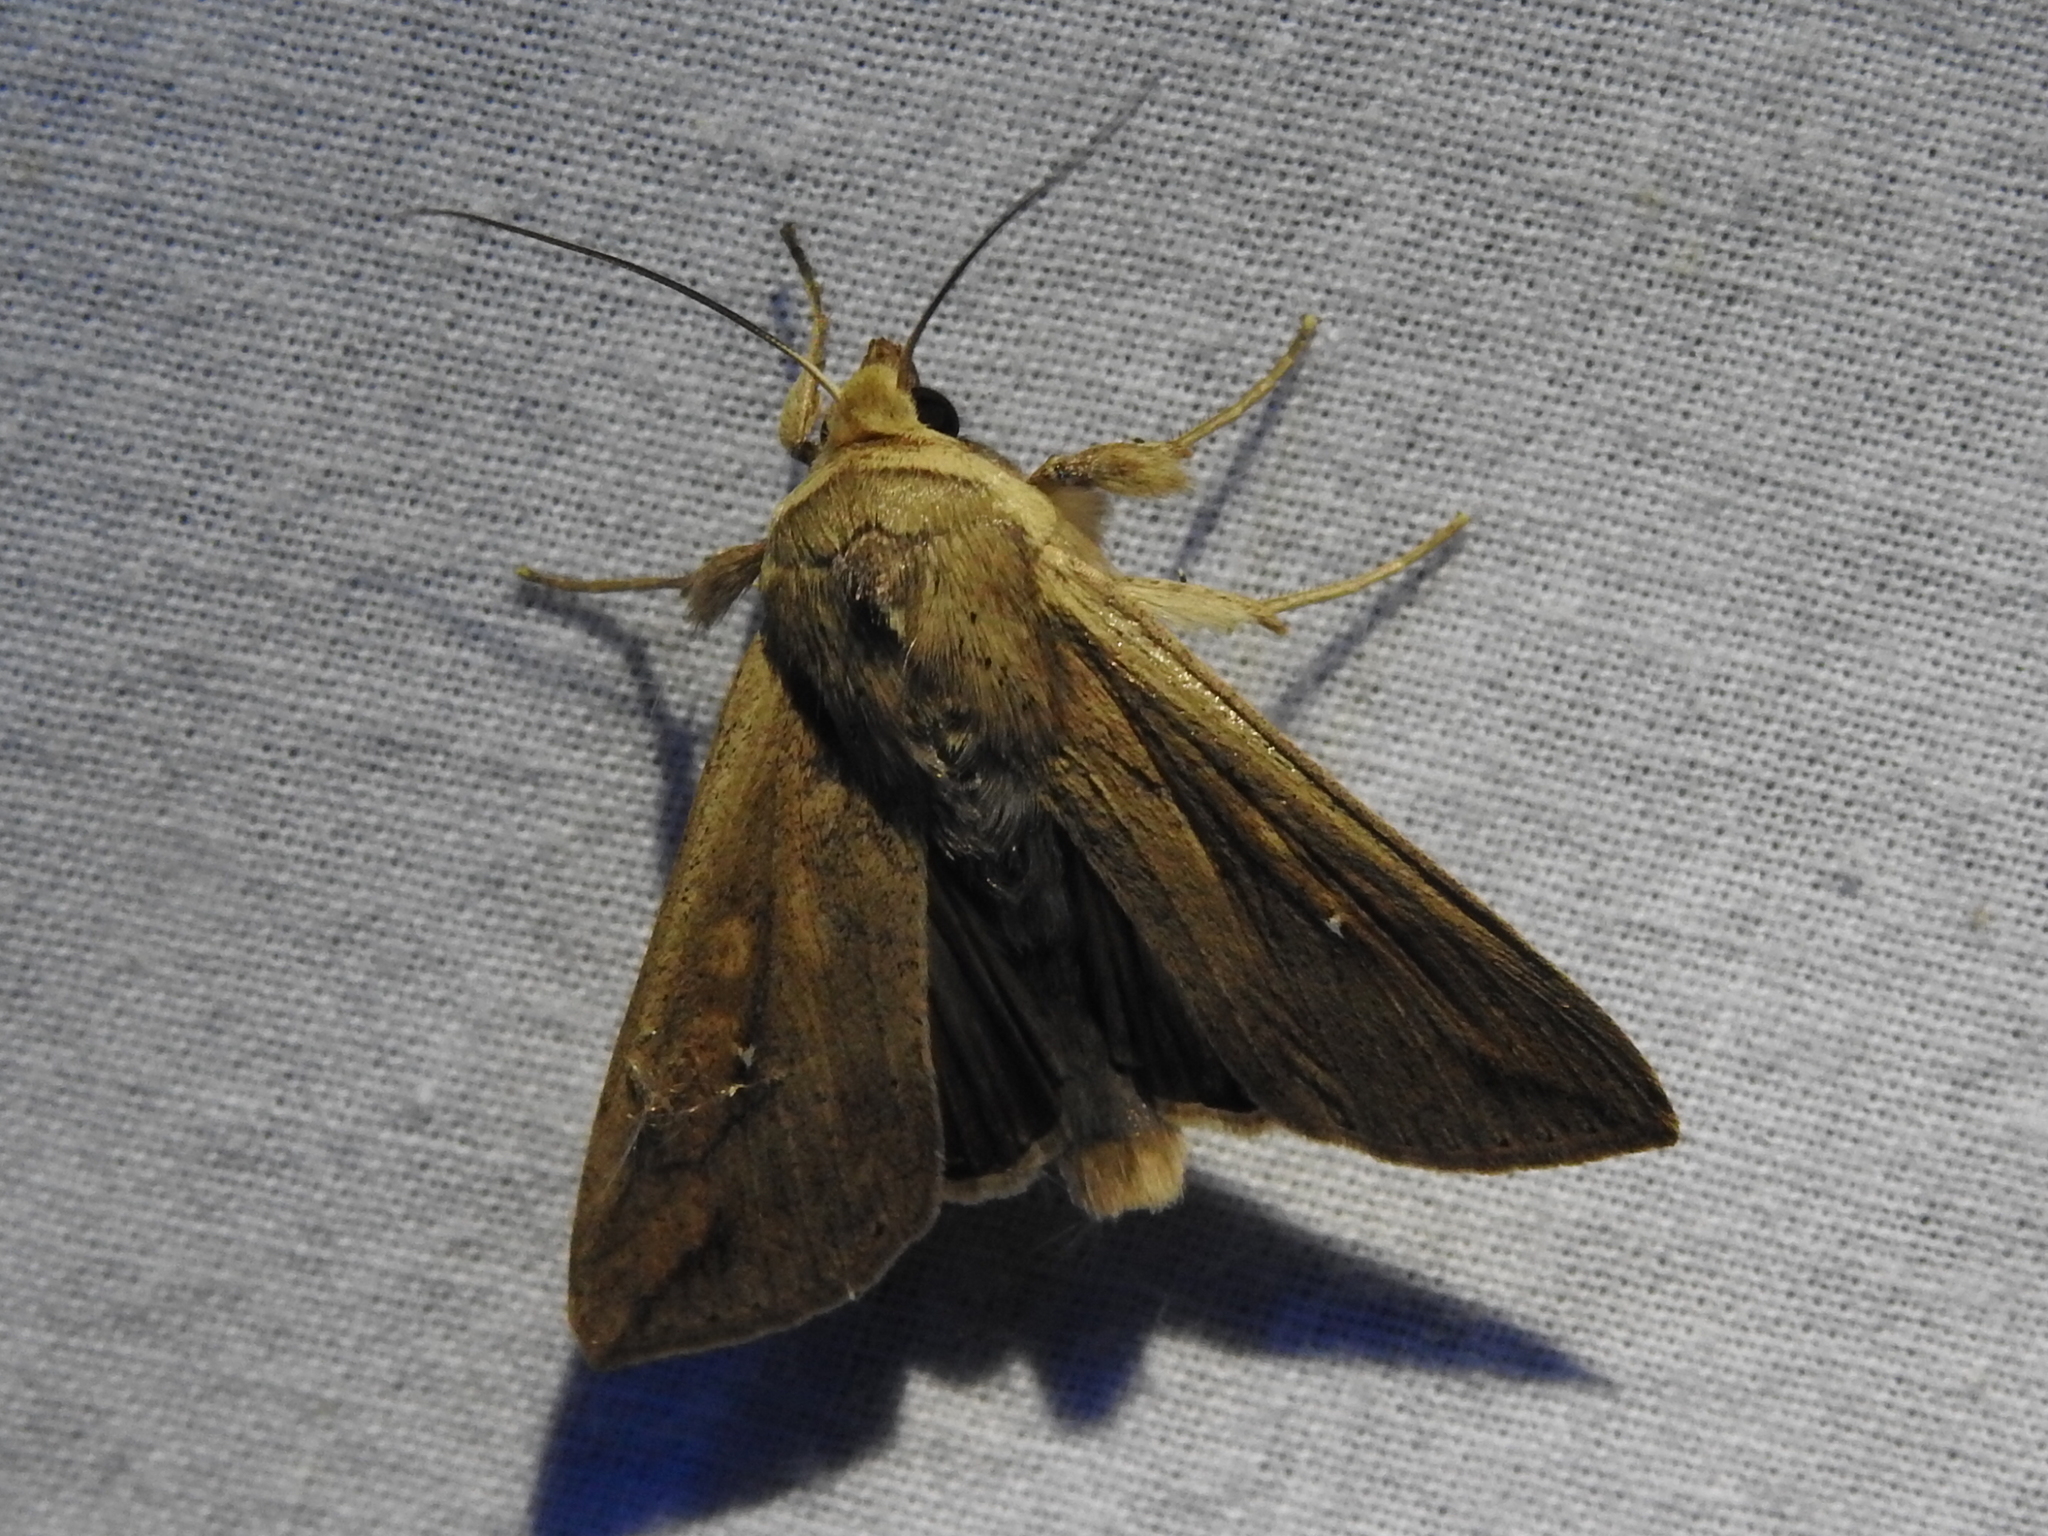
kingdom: Animalia
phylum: Arthropoda
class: Insecta
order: Lepidoptera
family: Noctuidae
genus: Mythimna
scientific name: Mythimna unipuncta
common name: White-speck
